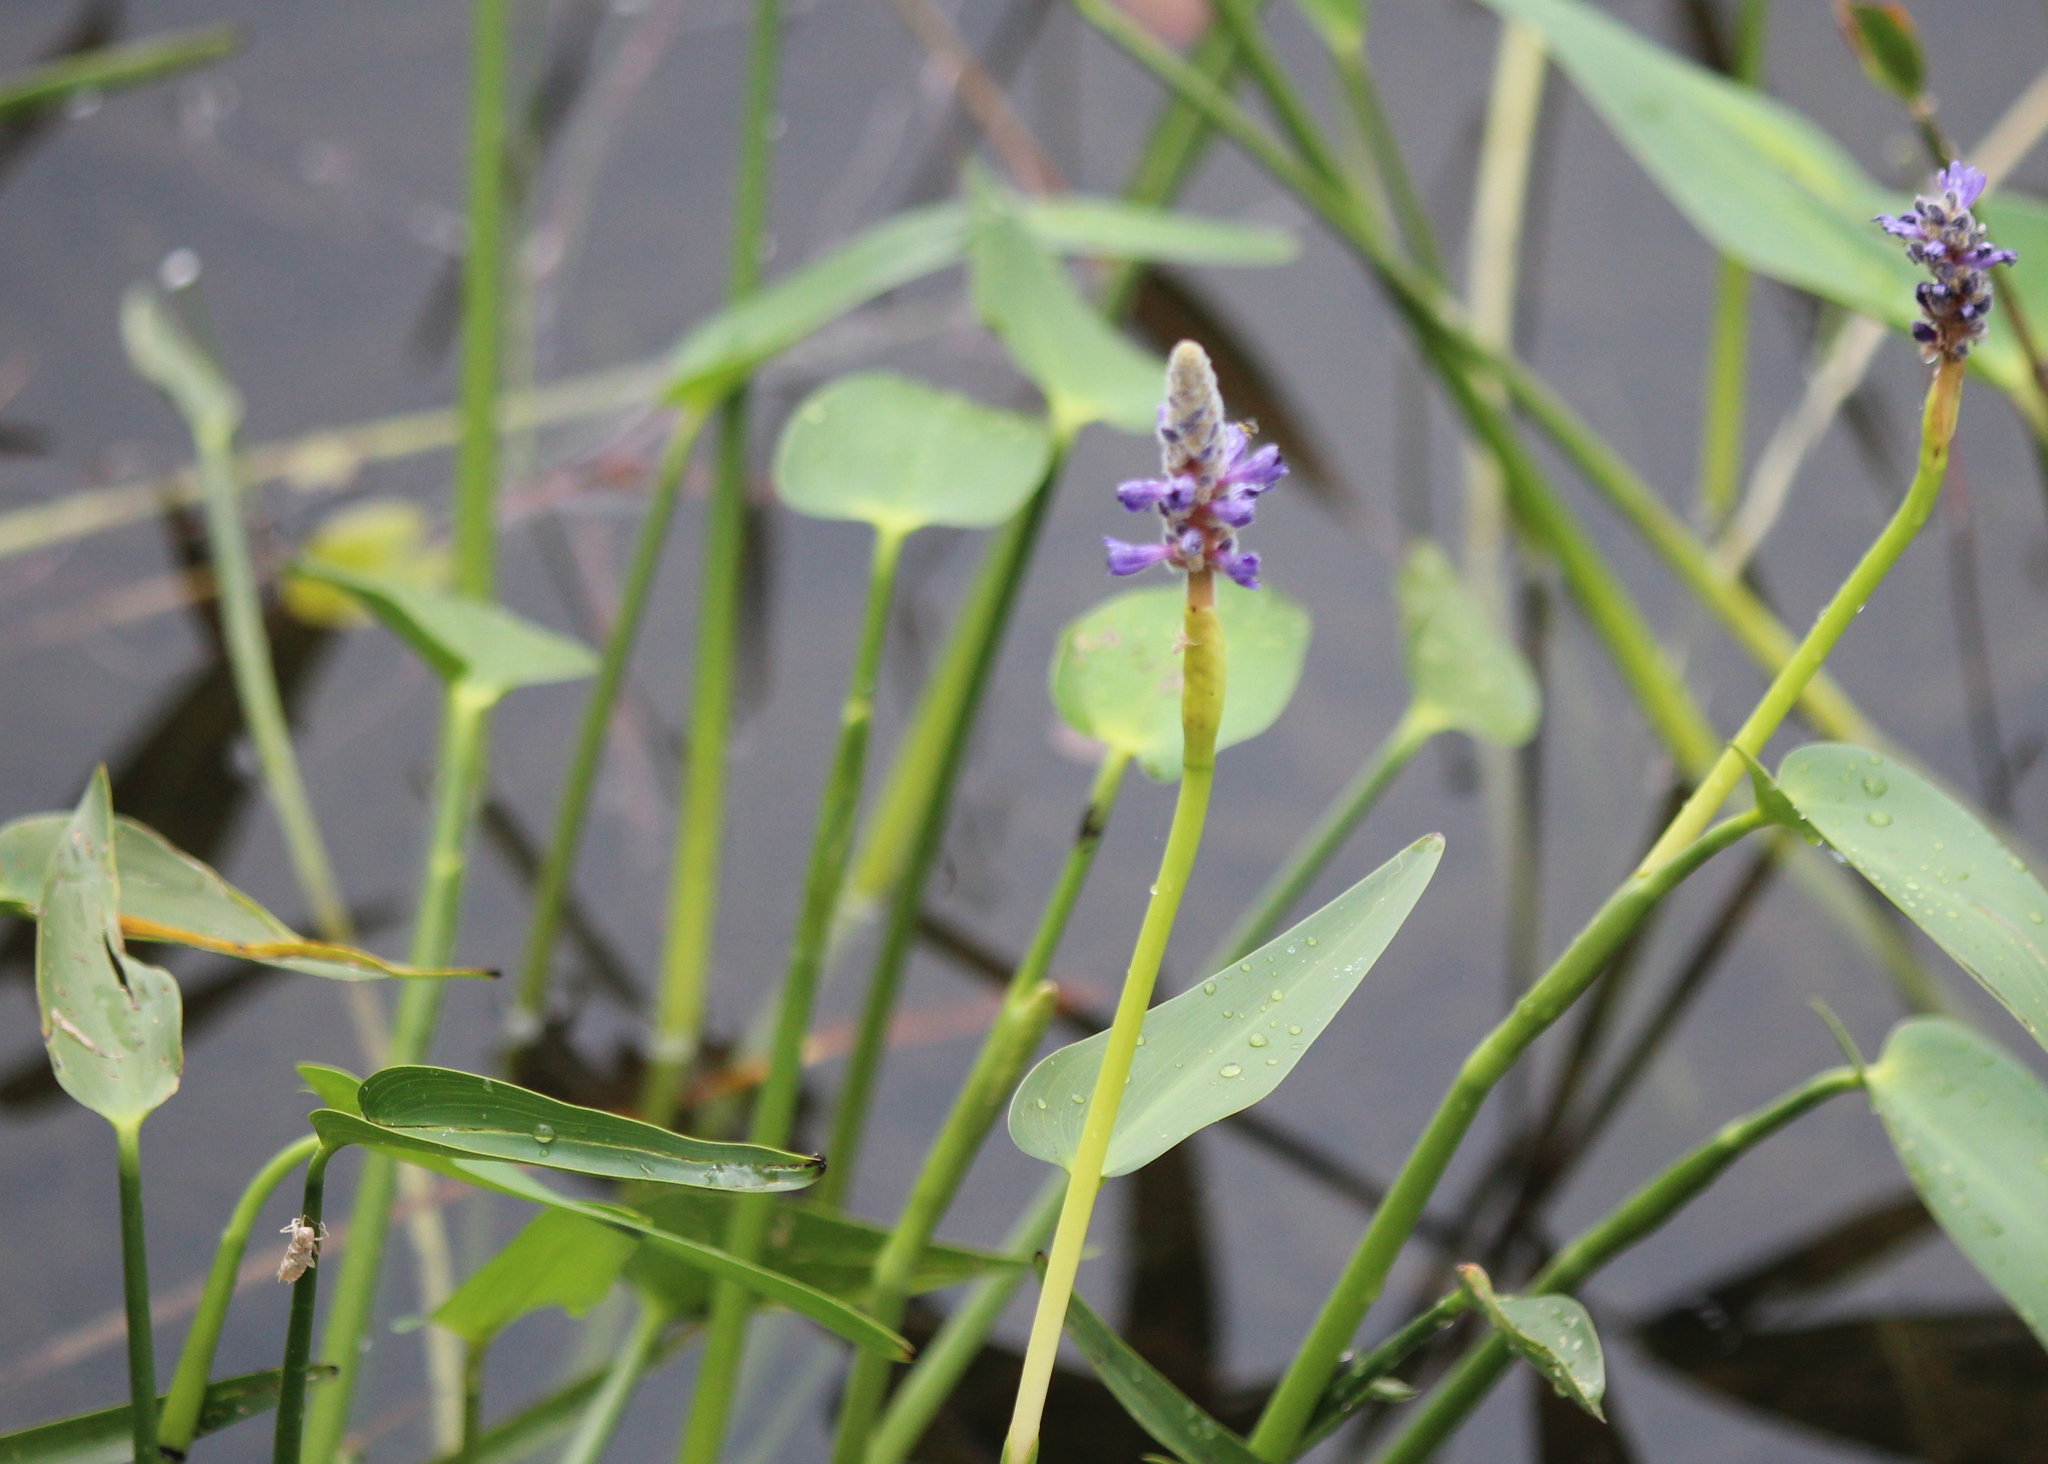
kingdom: Plantae
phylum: Tracheophyta
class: Liliopsida
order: Commelinales
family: Pontederiaceae
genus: Pontederia
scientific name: Pontederia cordata
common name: Pickerelweed
